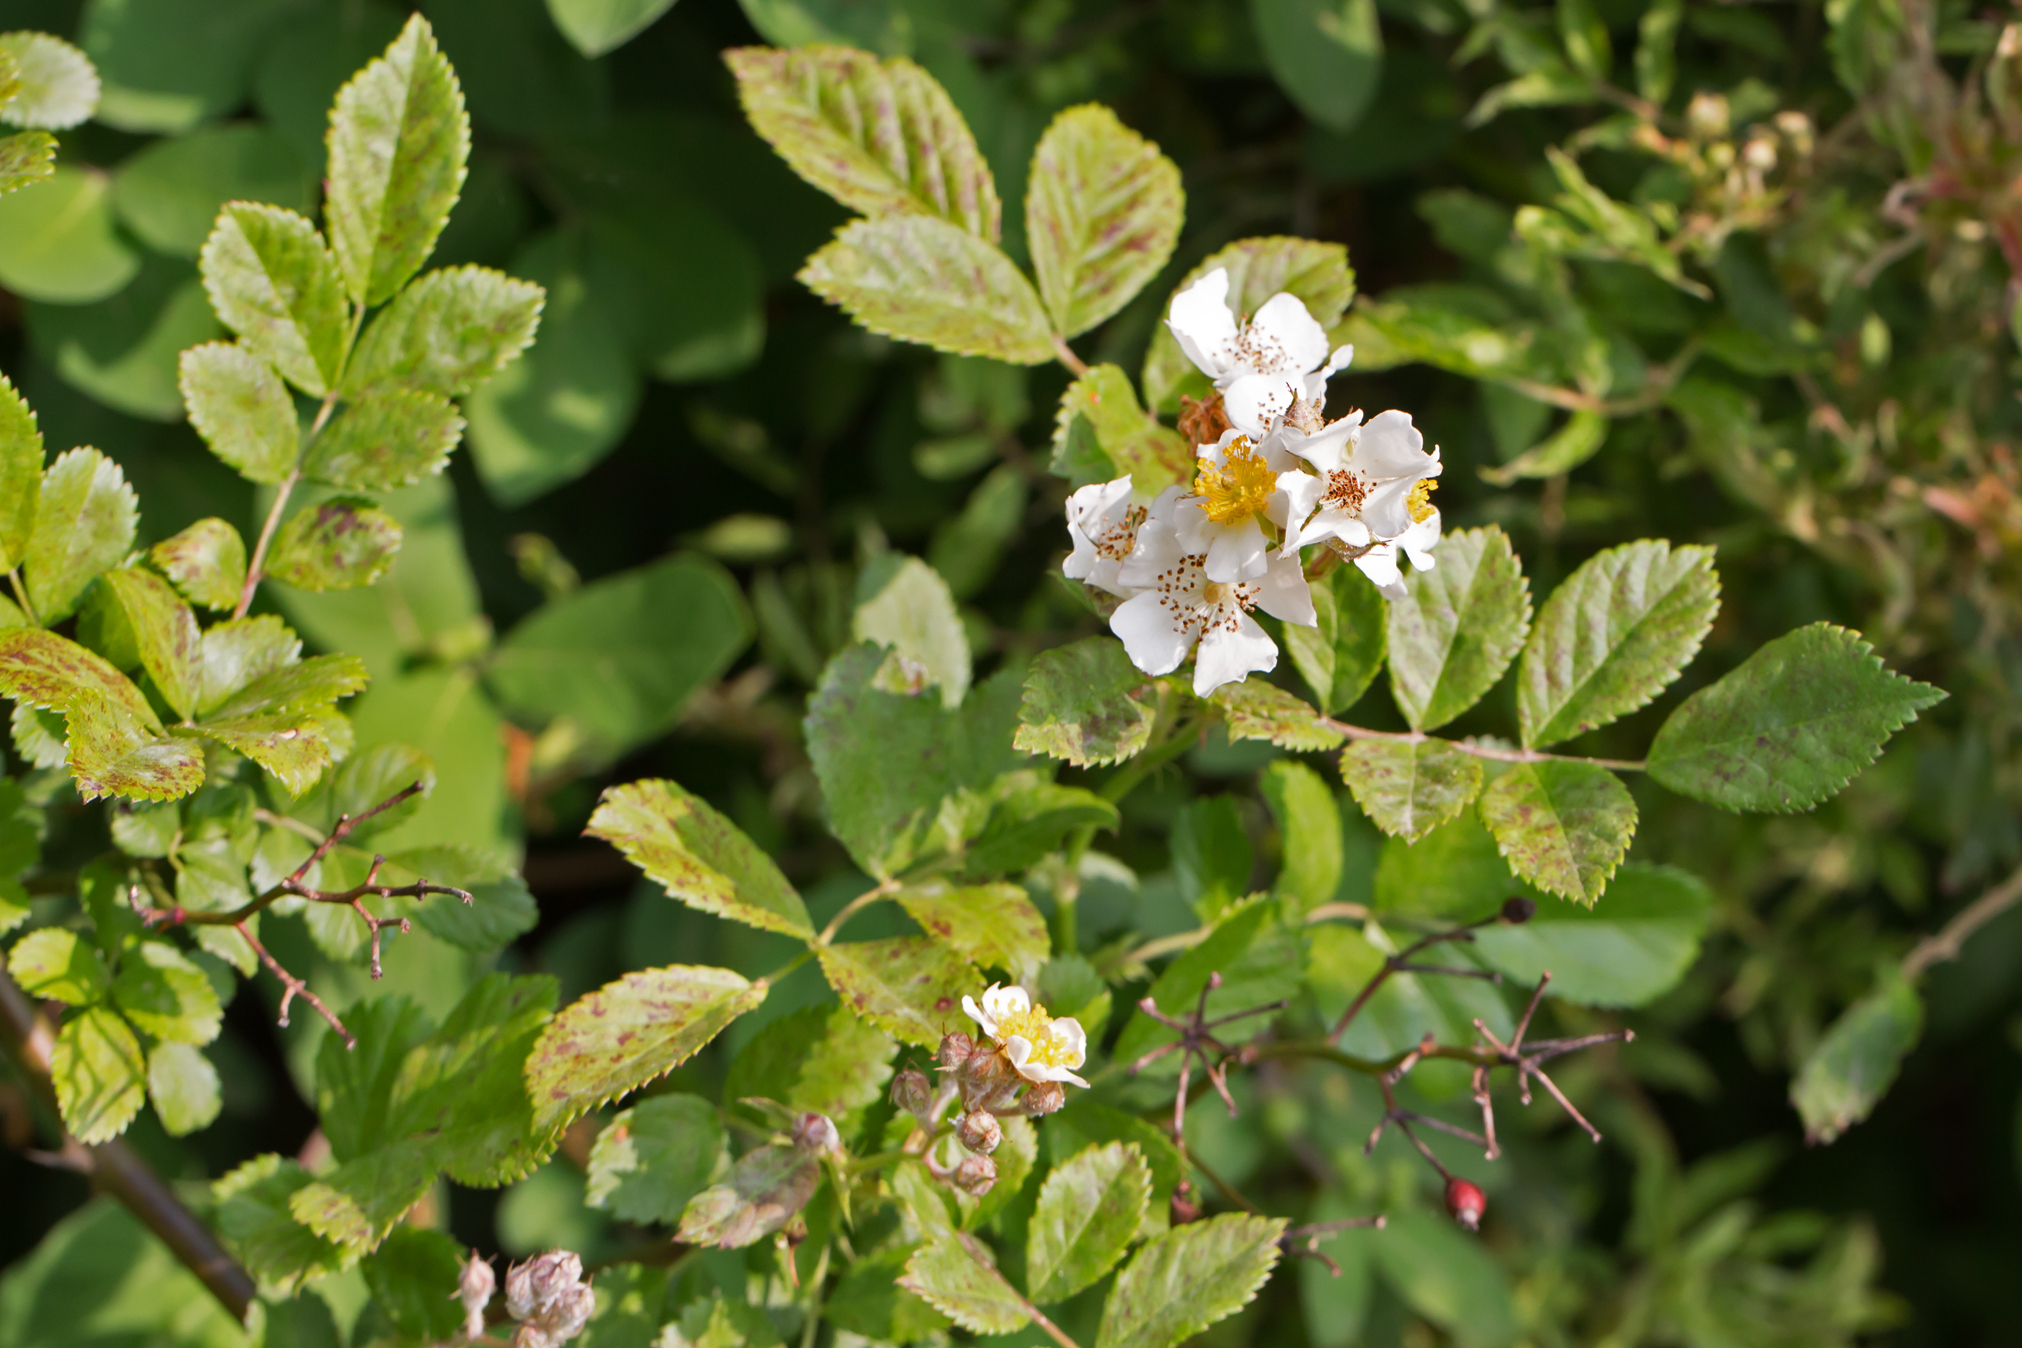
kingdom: Plantae
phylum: Tracheophyta
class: Magnoliopsida
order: Rosales
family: Rosaceae
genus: Rosa
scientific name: Rosa multiflora
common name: Multiflora rose
